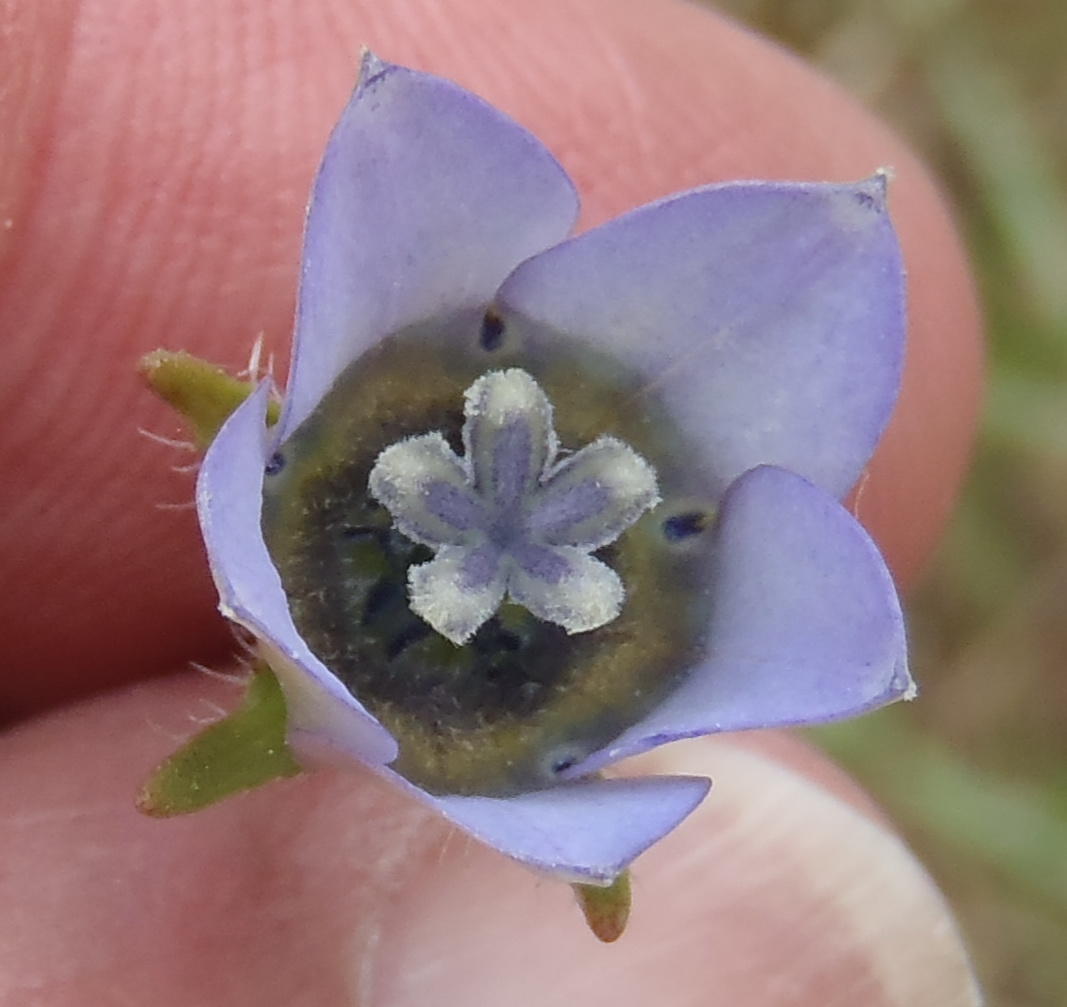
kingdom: Plantae
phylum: Tracheophyta
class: Magnoliopsida
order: Asterales
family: Campanulaceae
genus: Wahlenbergia
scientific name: Wahlenbergia capensis
